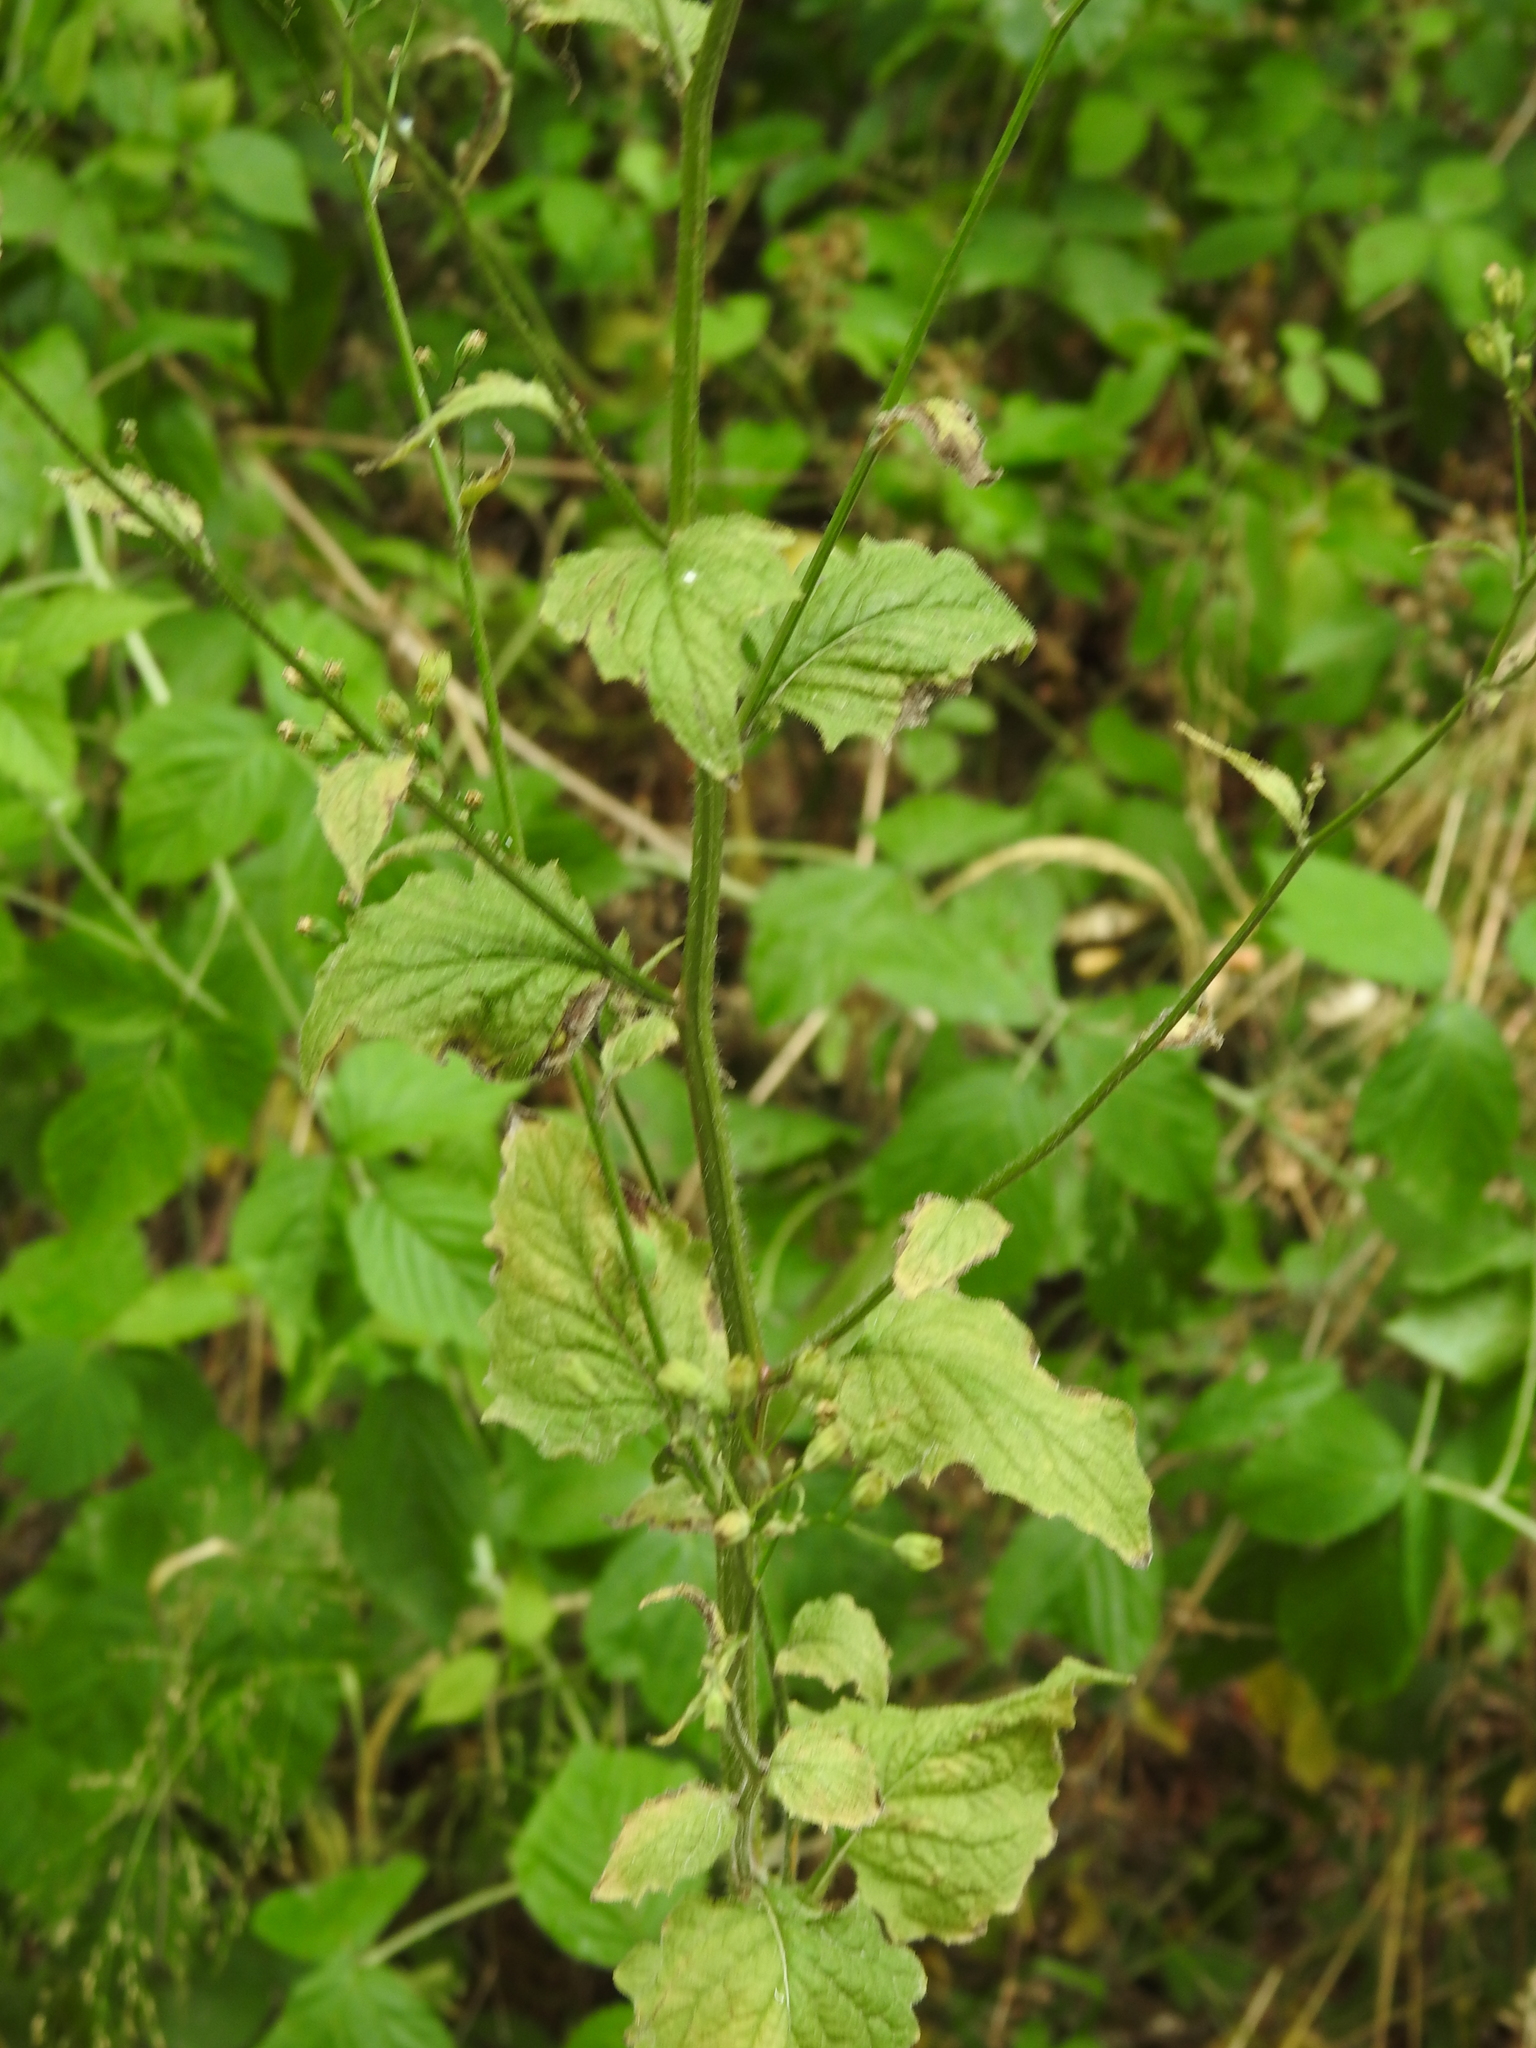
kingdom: Plantae
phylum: Tracheophyta
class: Magnoliopsida
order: Asterales
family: Asteraceae
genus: Lapsana
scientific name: Lapsana communis
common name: Nipplewort
